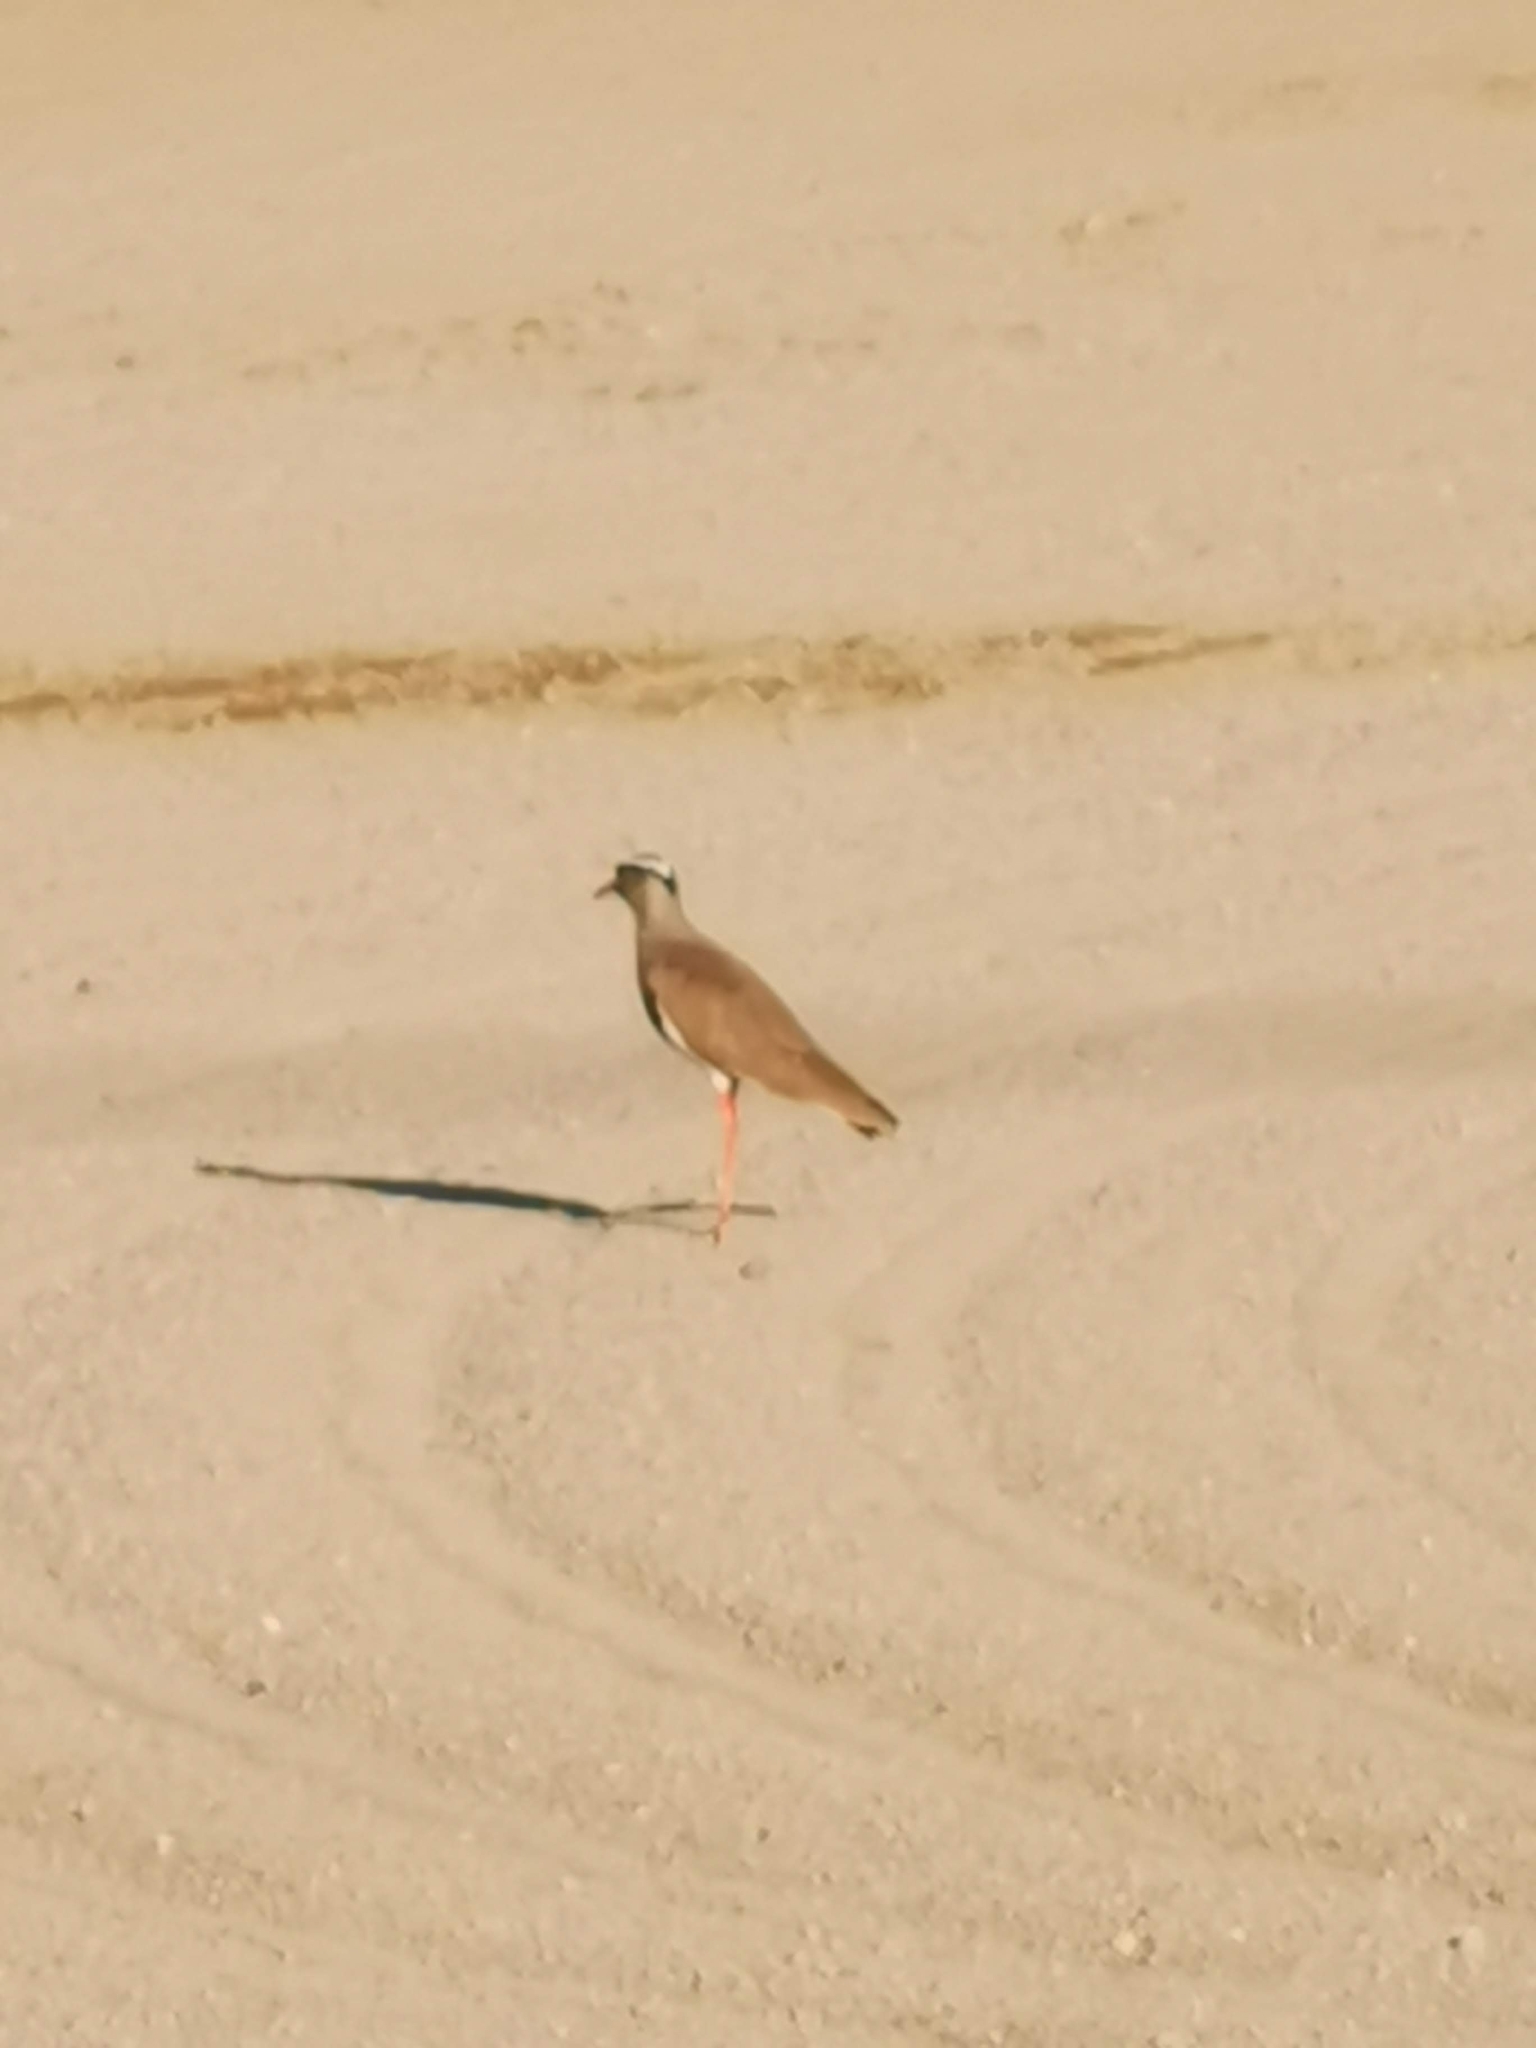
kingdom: Animalia
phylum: Chordata
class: Aves
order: Charadriiformes
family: Charadriidae
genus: Vanellus
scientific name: Vanellus coronatus
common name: Crowned lapwing
